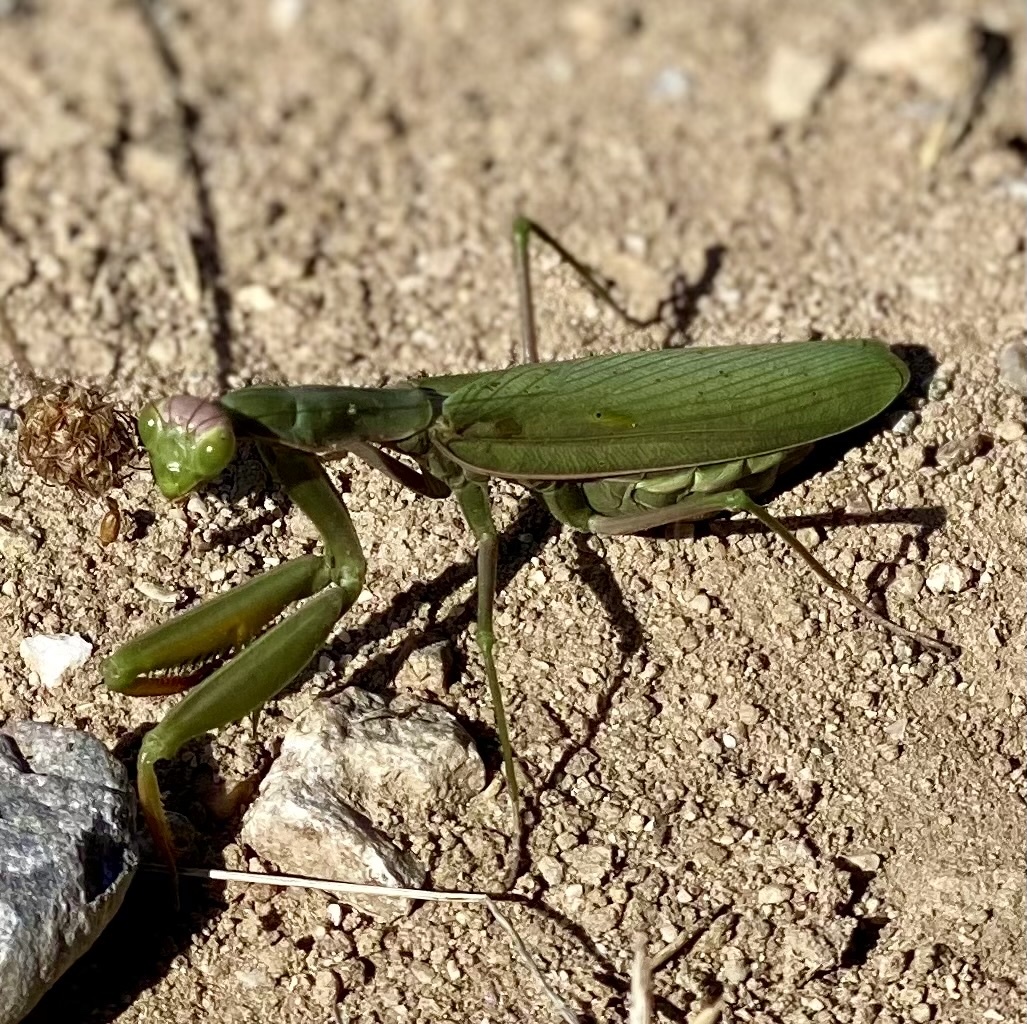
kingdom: Animalia
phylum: Arthropoda
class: Insecta
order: Mantodea
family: Mantidae
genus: Mantis
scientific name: Mantis religiosa
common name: Praying mantis
